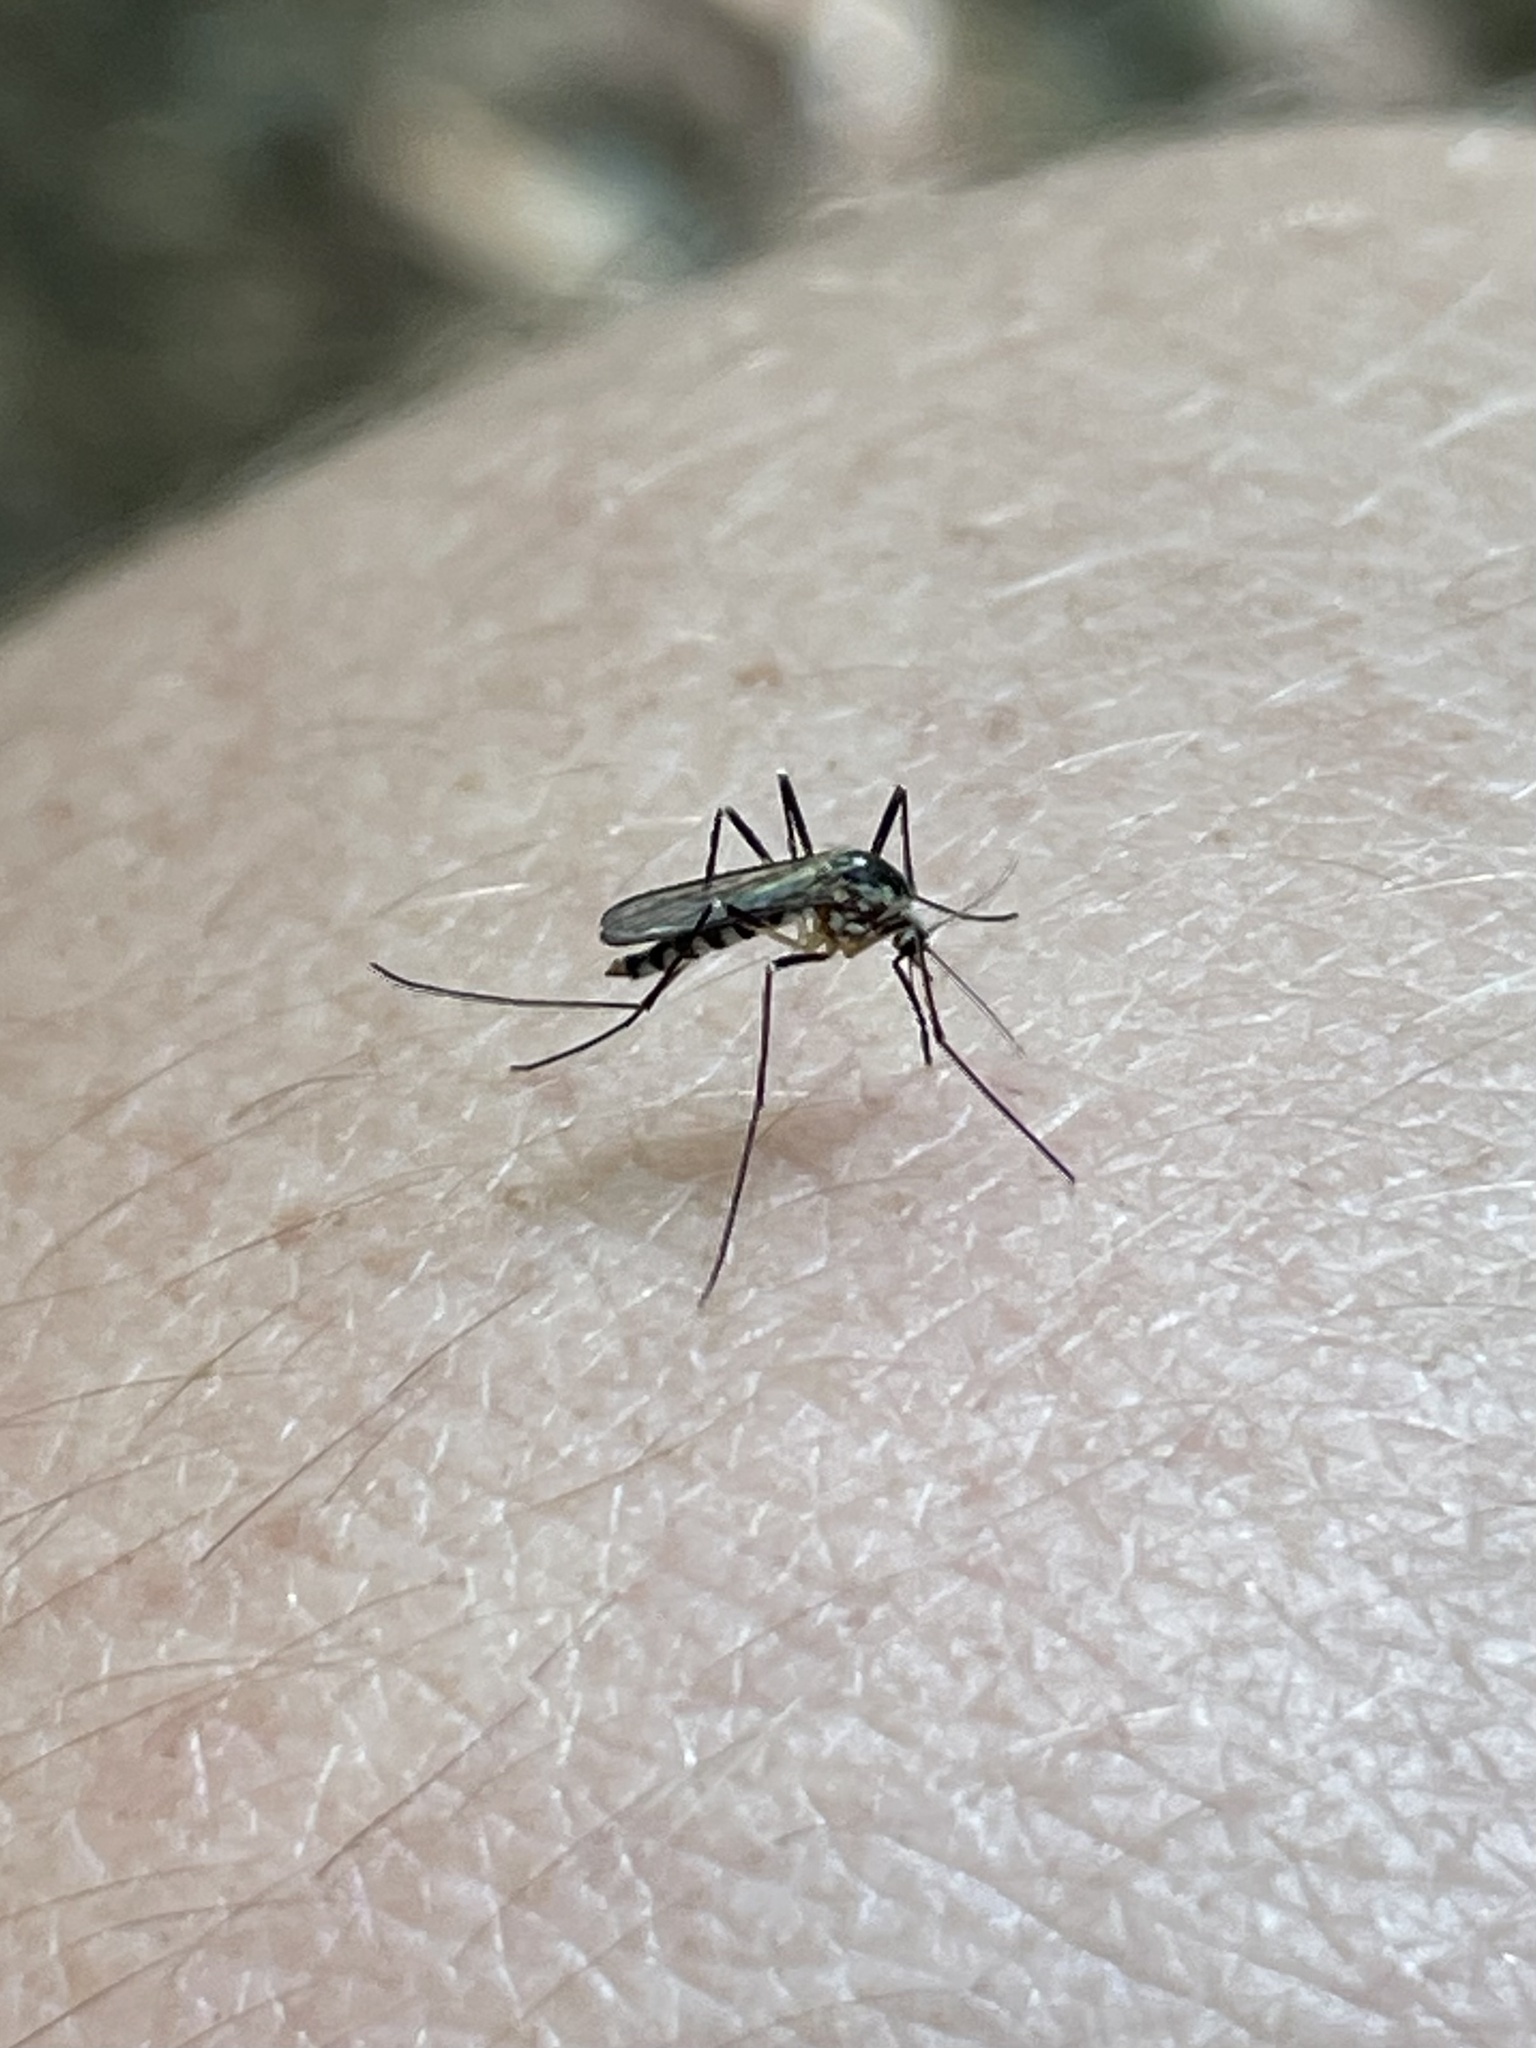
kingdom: Animalia
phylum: Arthropoda
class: Insecta
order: Diptera
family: Culicidae
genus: Aedes
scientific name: Aedes triseriatus
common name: Eastern treehole mosquito
